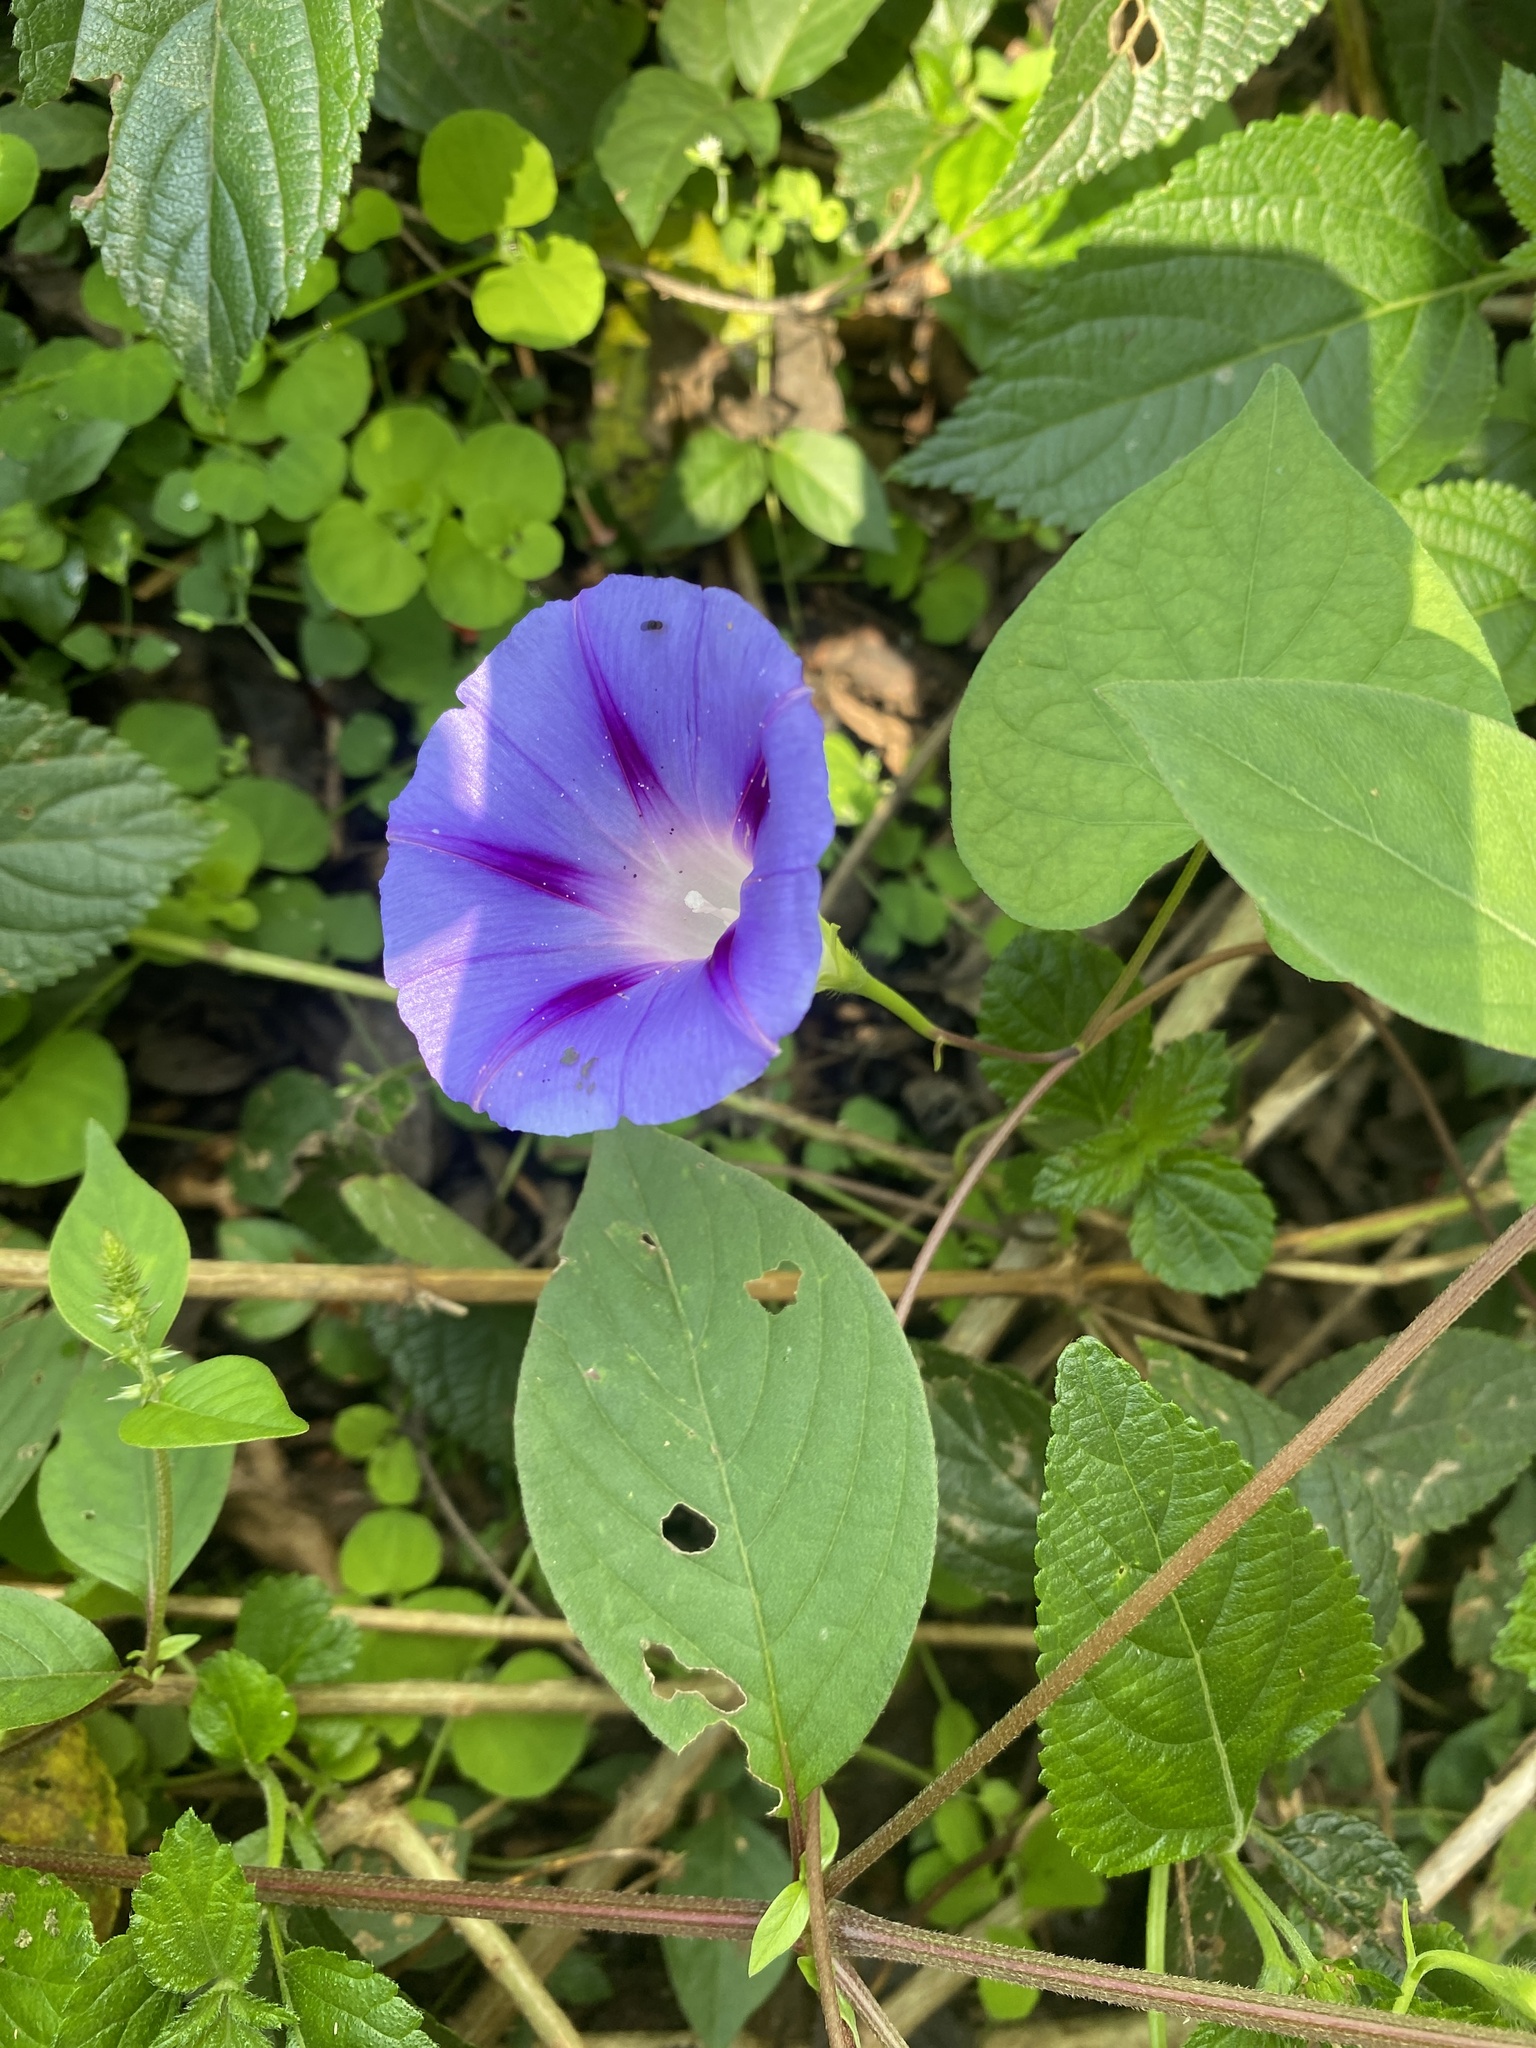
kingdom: Plantae
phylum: Tracheophyta
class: Magnoliopsida
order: Solanales
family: Convolvulaceae
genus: Ipomoea
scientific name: Ipomoea purpurea
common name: Common morning-glory
